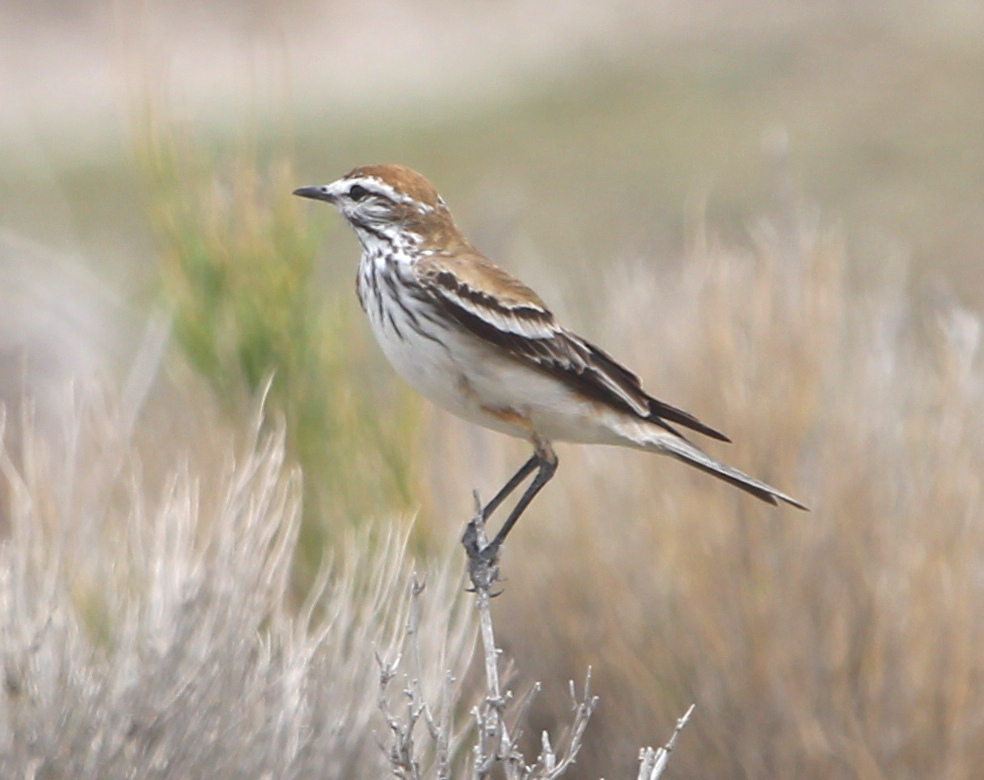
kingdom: Animalia
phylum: Chordata
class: Aves
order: Passeriformes
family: Tyrannidae
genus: Xolmis
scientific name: Xolmis rubetra
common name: Rusty-backed monjita
